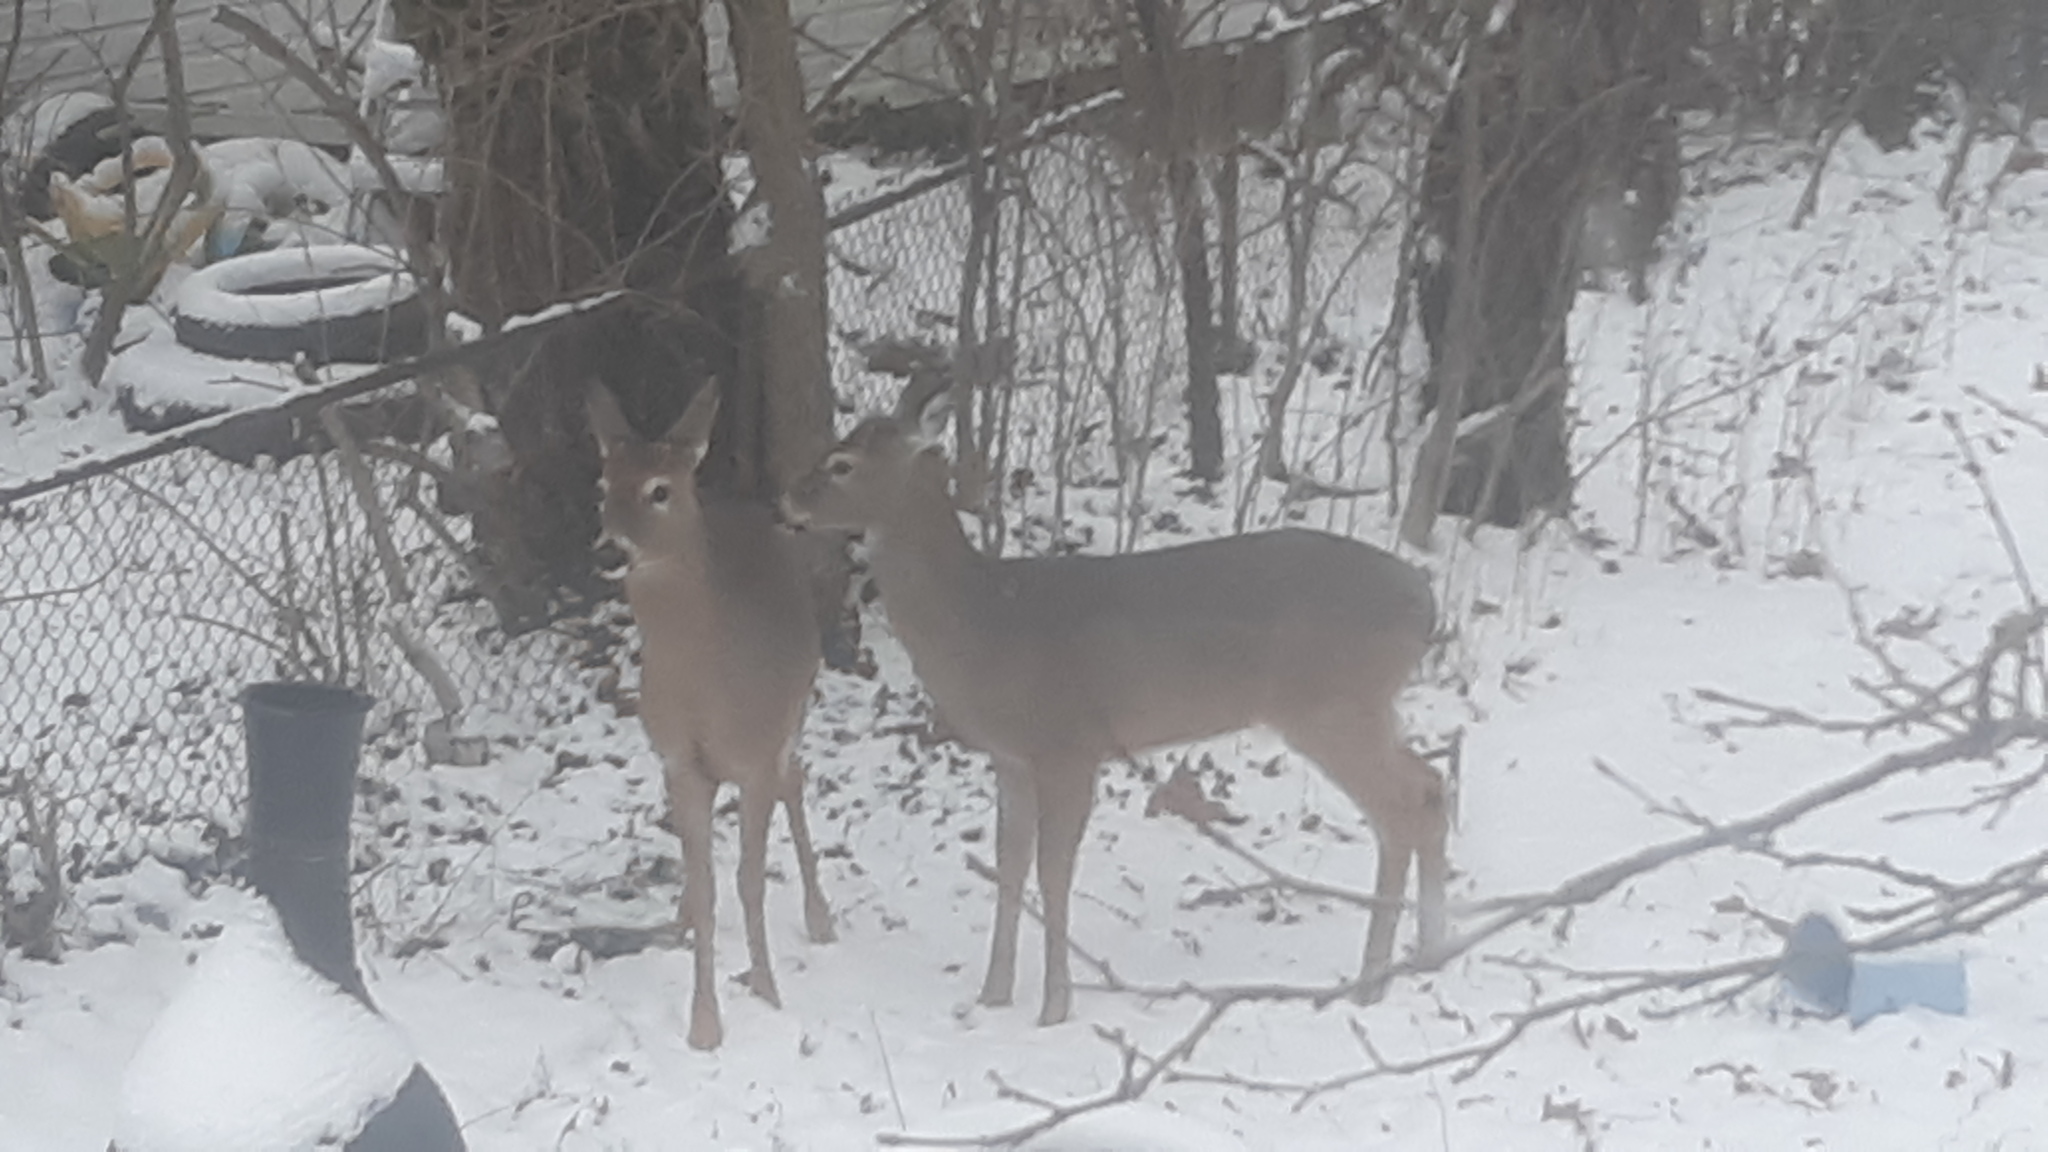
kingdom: Animalia
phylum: Chordata
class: Mammalia
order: Artiodactyla
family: Cervidae
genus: Odocoileus
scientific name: Odocoileus virginianus
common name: White-tailed deer
